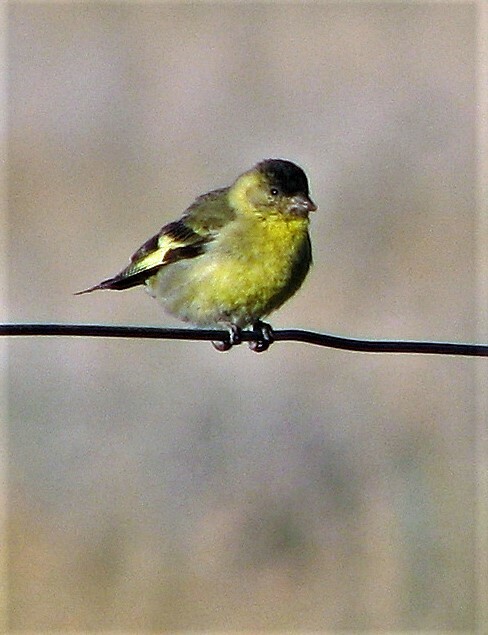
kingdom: Animalia
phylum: Chordata
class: Aves
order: Passeriformes
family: Fringillidae
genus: Spinus
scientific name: Spinus barbatus
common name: Black-chinned siskin
